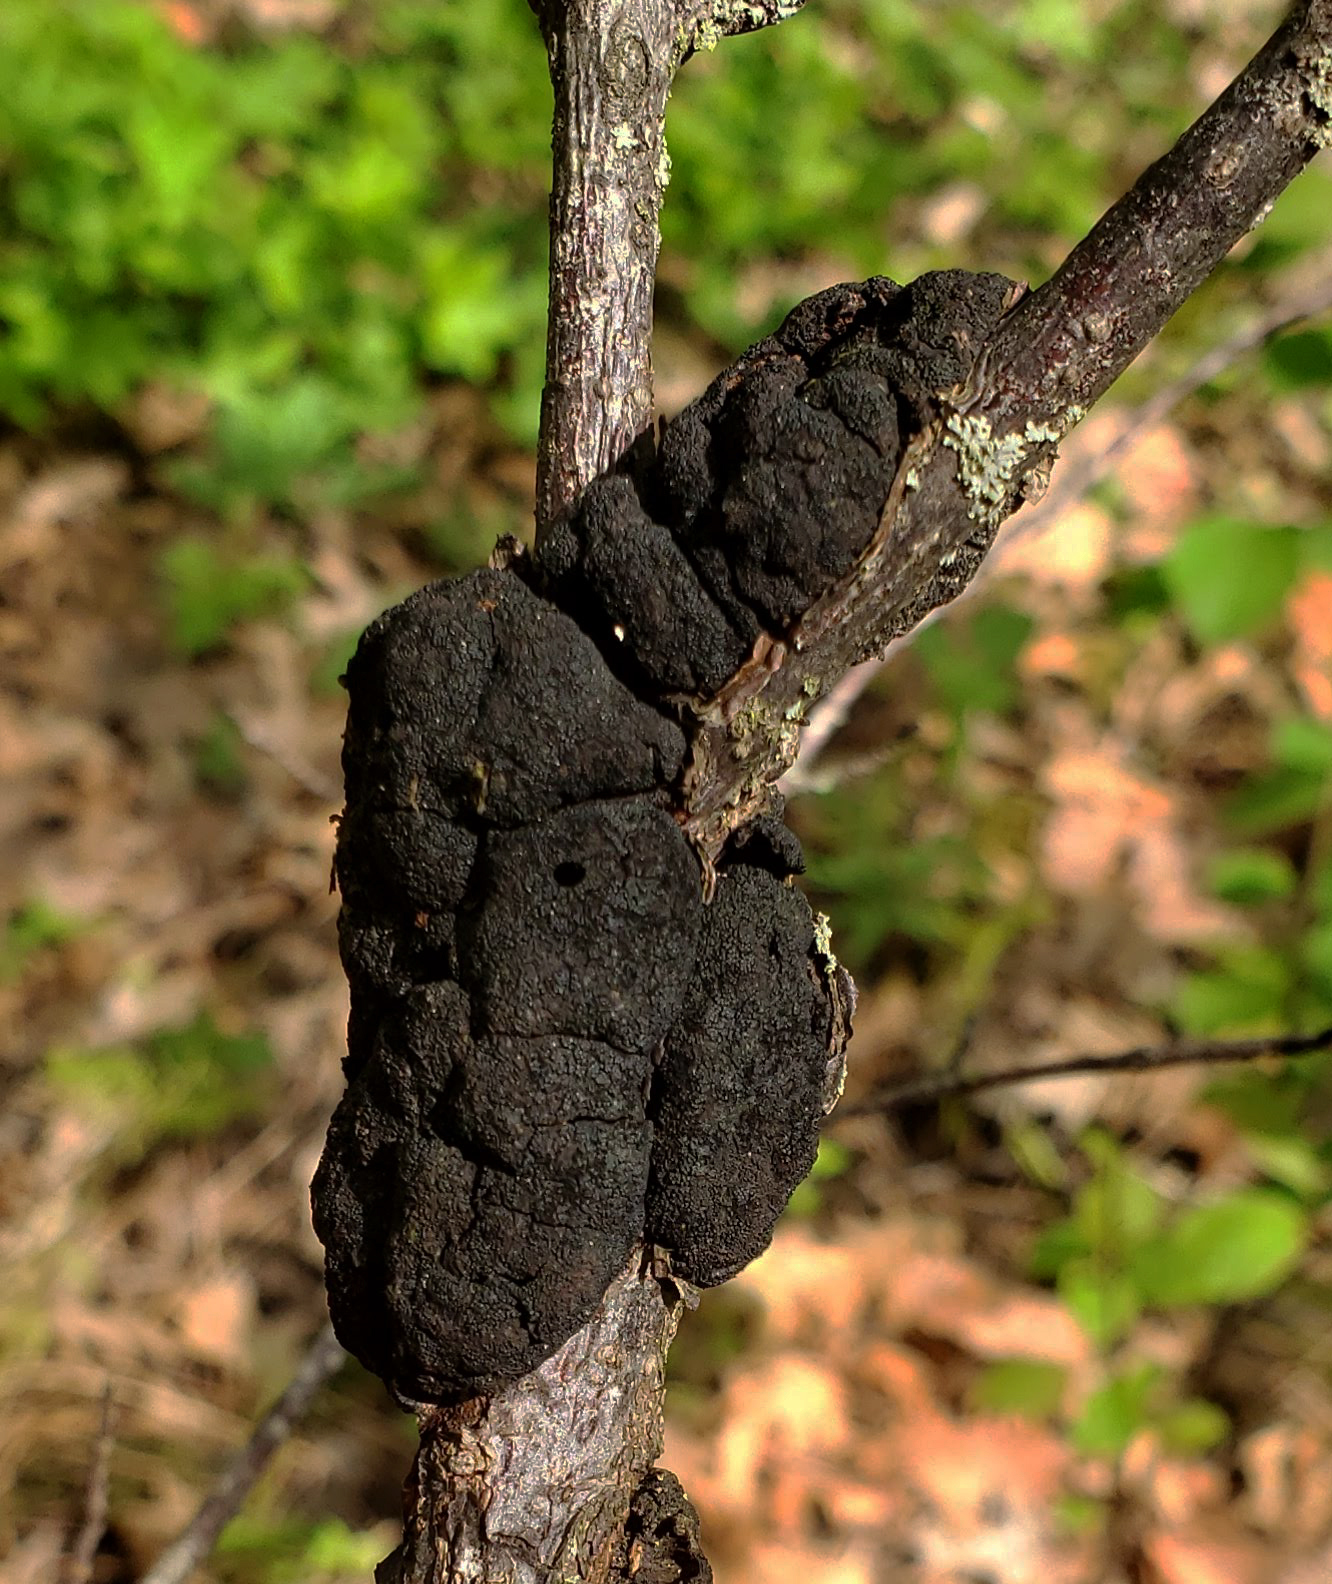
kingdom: Fungi
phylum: Ascomycota
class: Dothideomycetes
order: Venturiales
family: Venturiaceae
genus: Apiosporina
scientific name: Apiosporina morbosa
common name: Black knot
